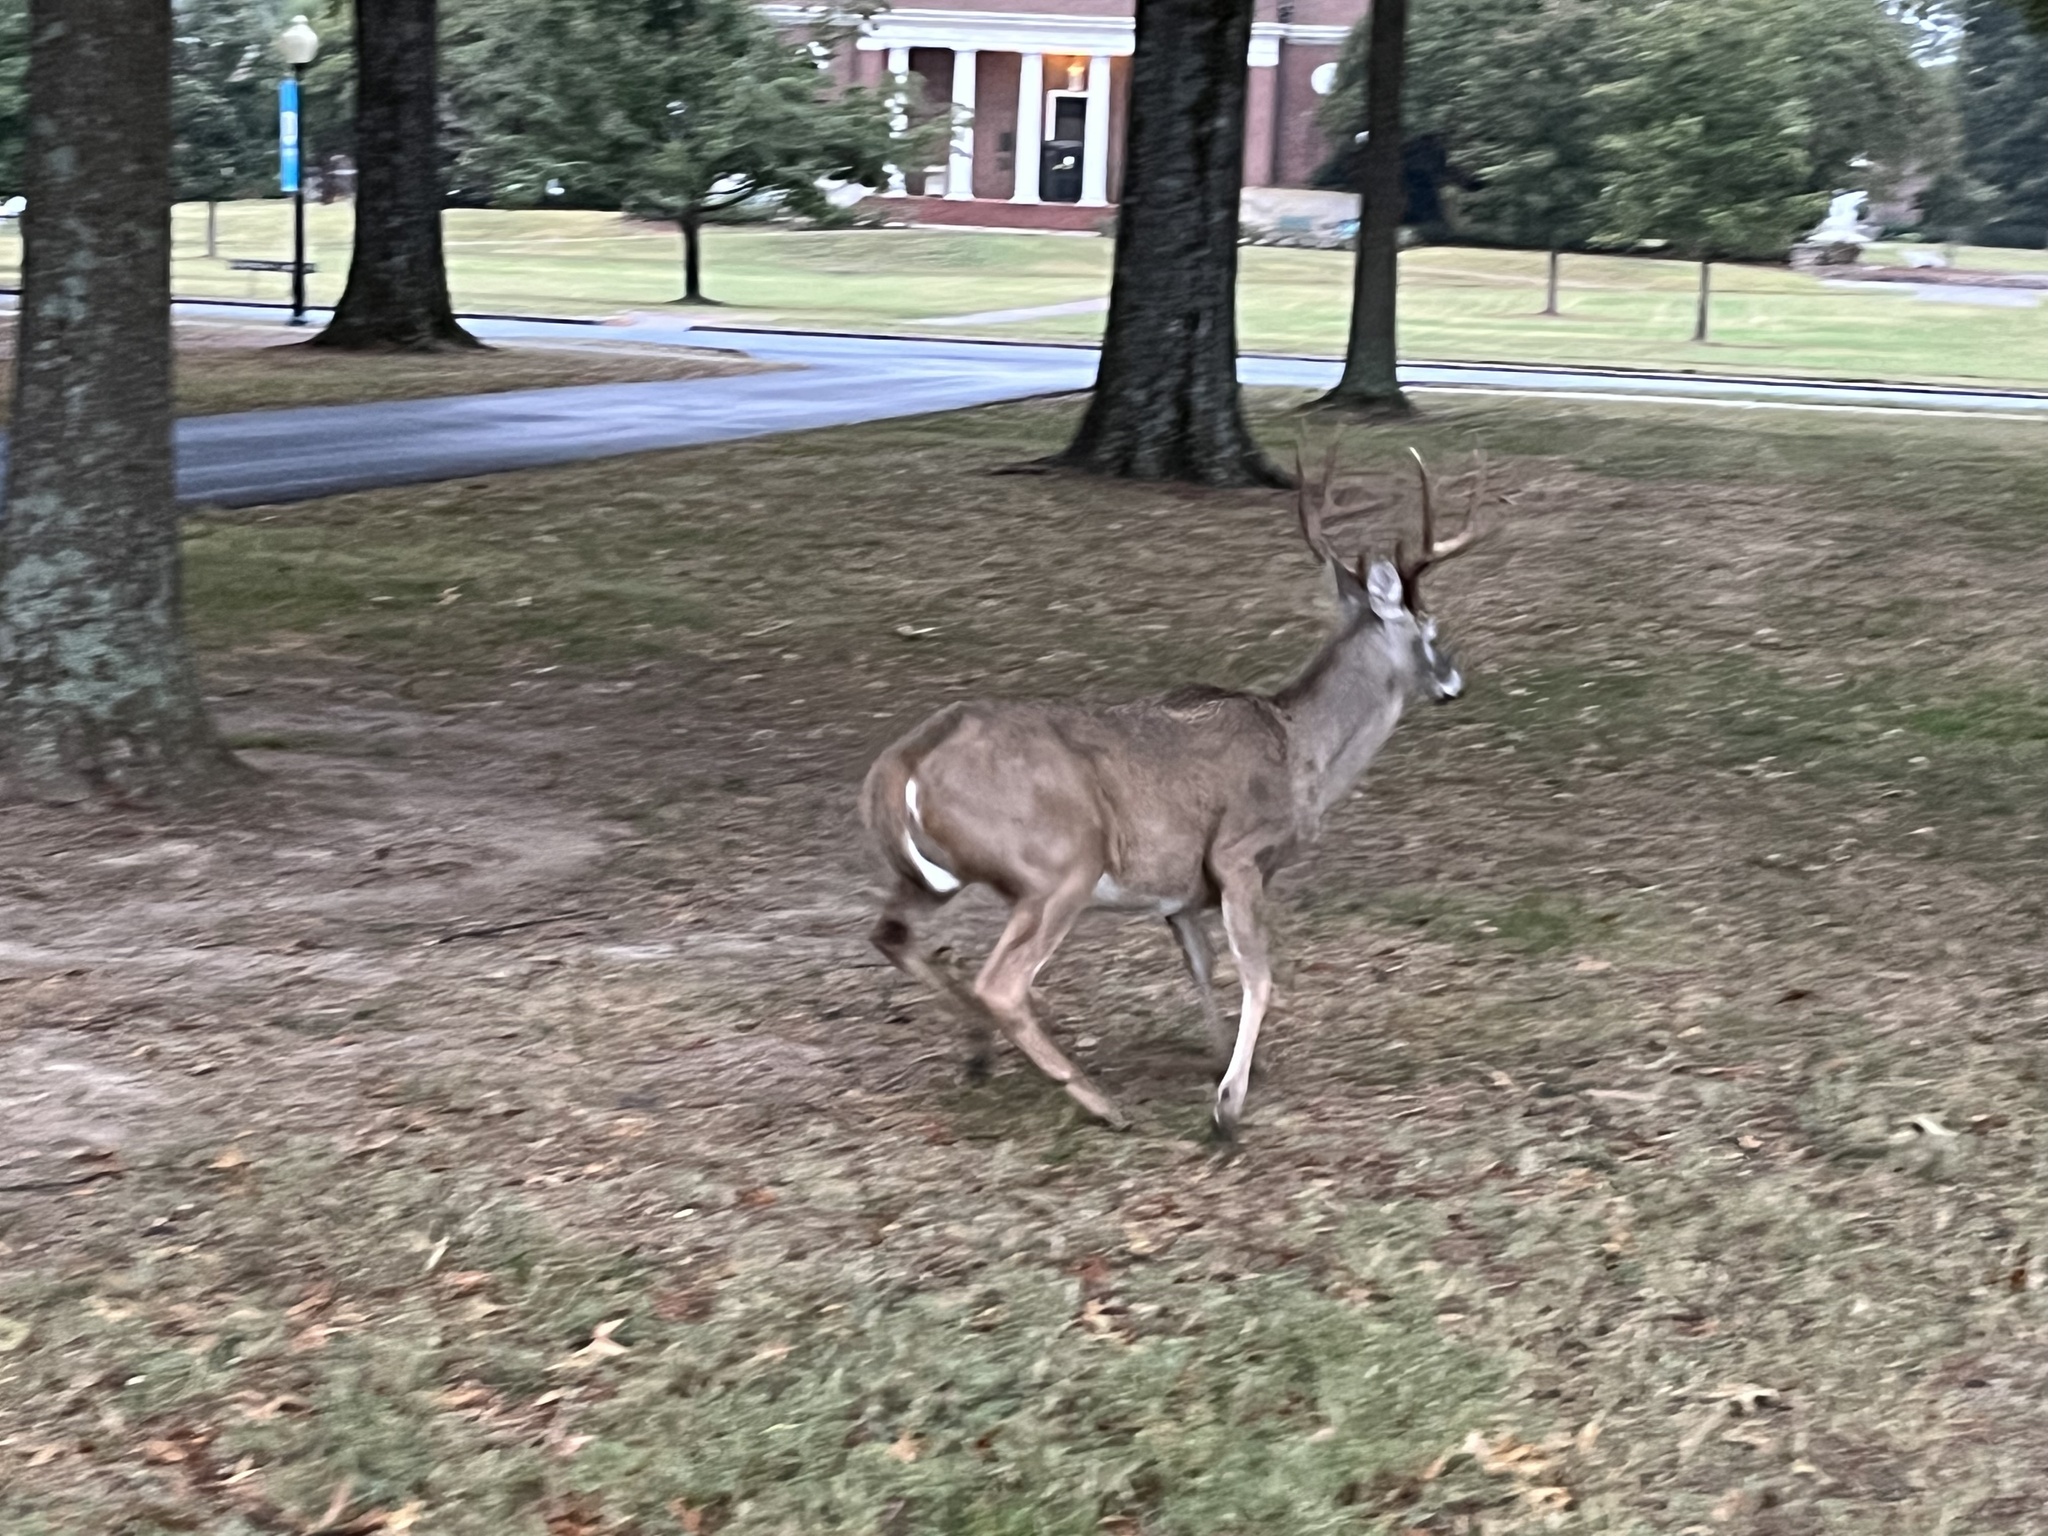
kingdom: Animalia
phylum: Chordata
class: Mammalia
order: Artiodactyla
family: Cervidae
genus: Odocoileus
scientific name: Odocoileus virginianus
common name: White-tailed deer
